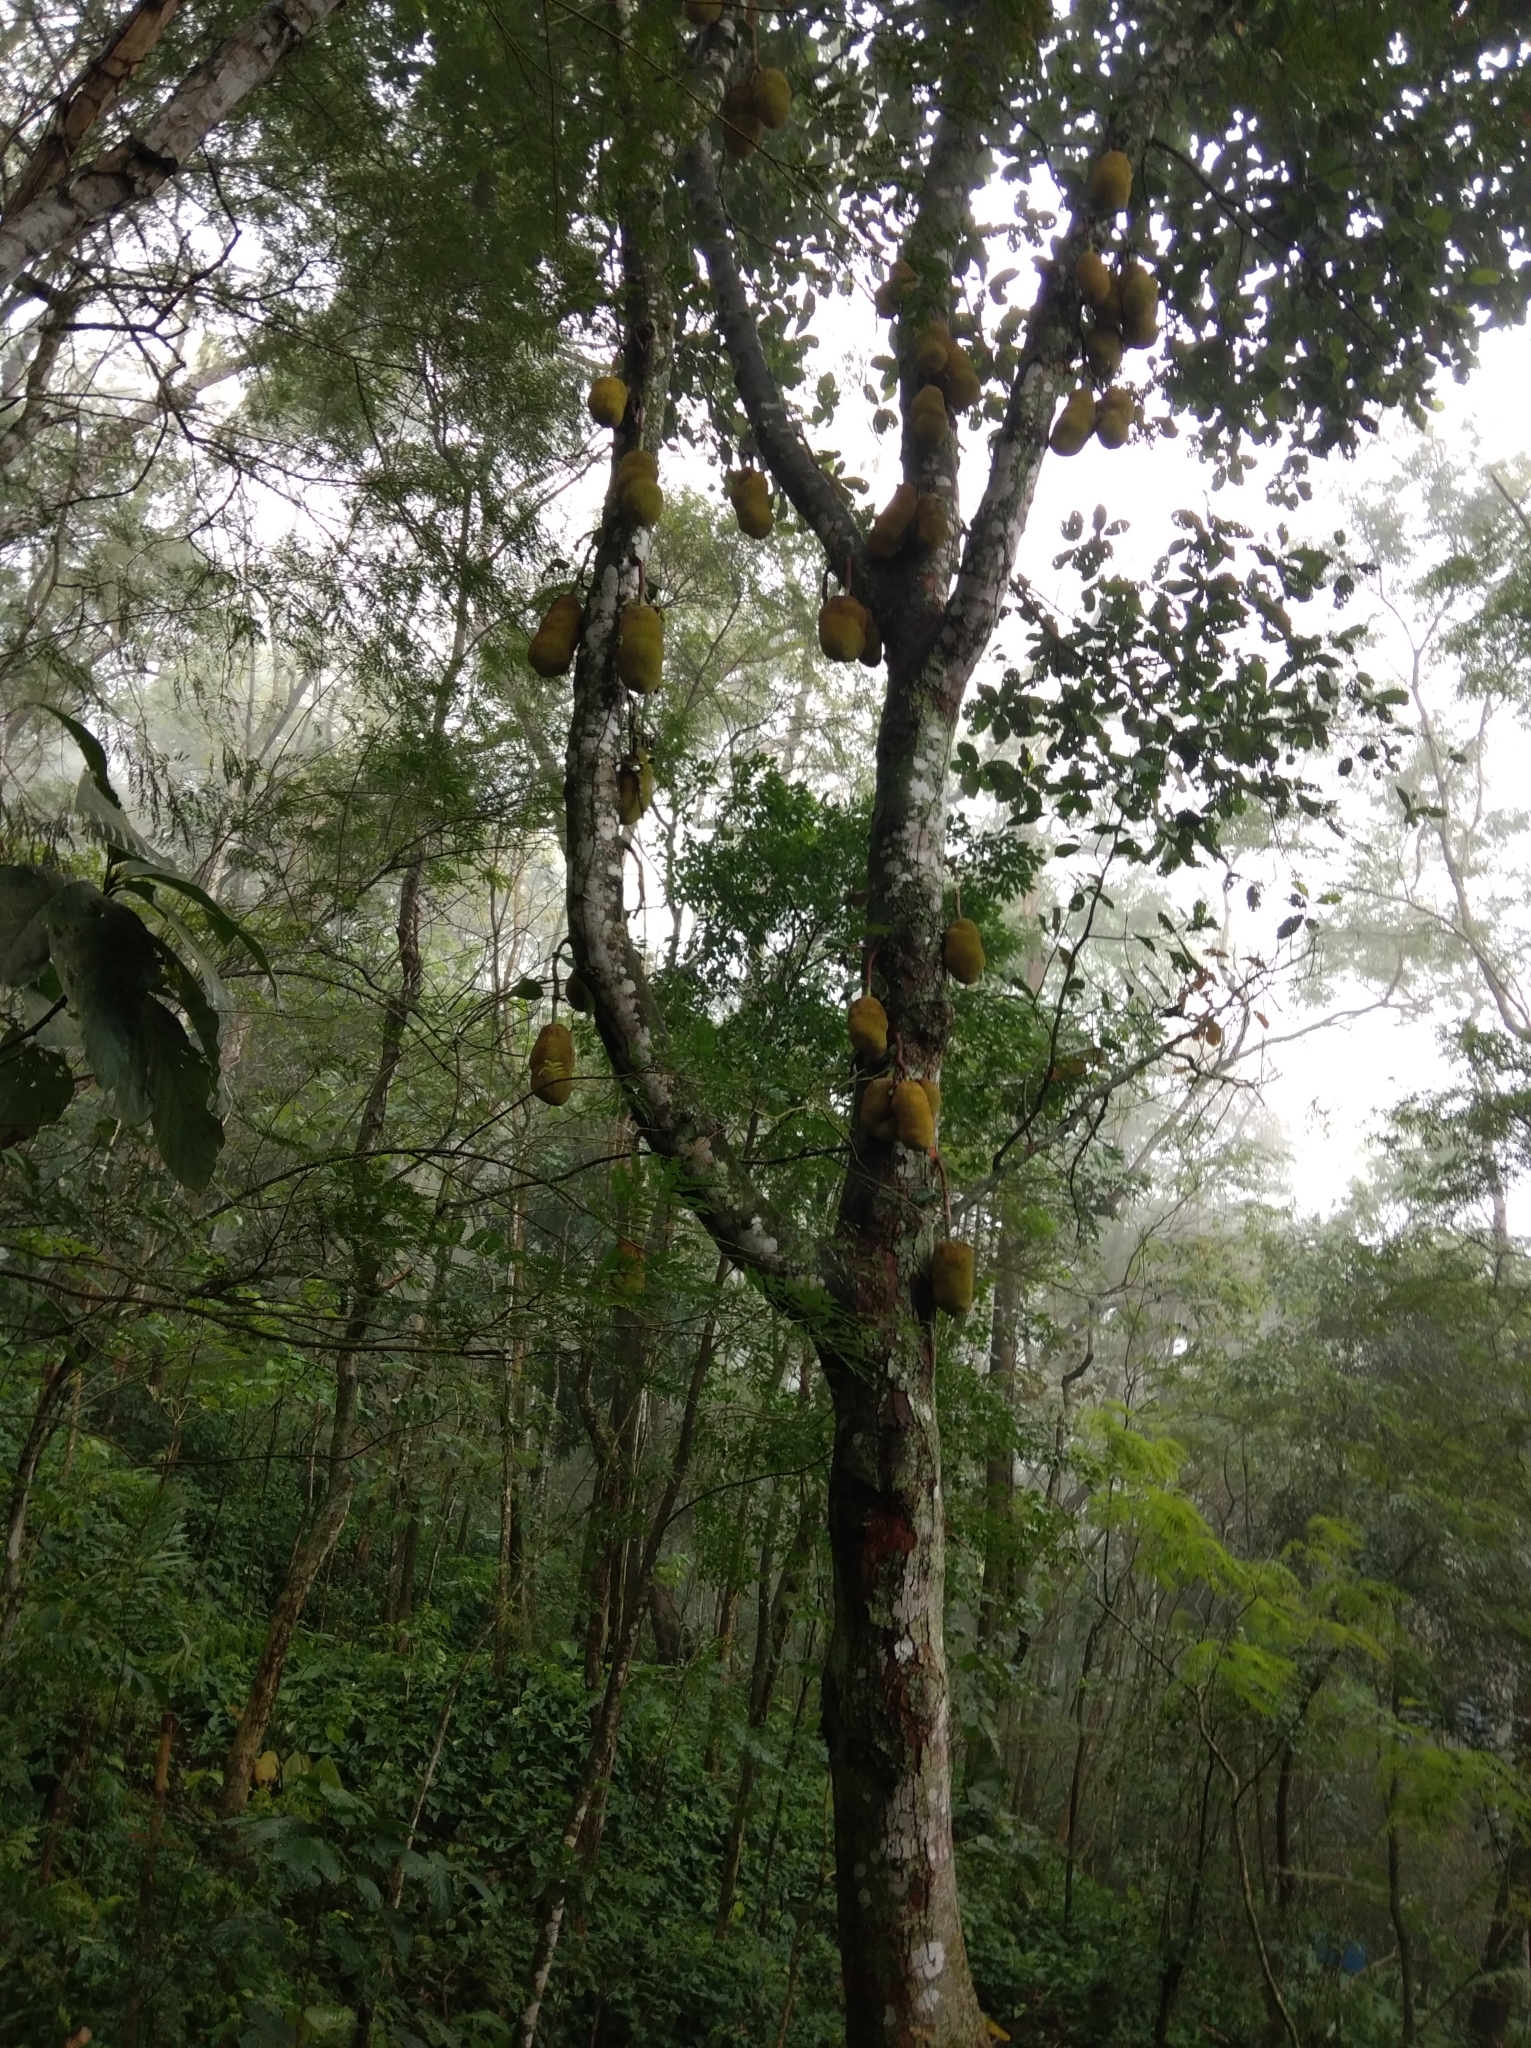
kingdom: Plantae
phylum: Tracheophyta
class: Magnoliopsida
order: Rosales
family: Moraceae
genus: Artocarpus
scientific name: Artocarpus heterophyllus
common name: Jackfruit
